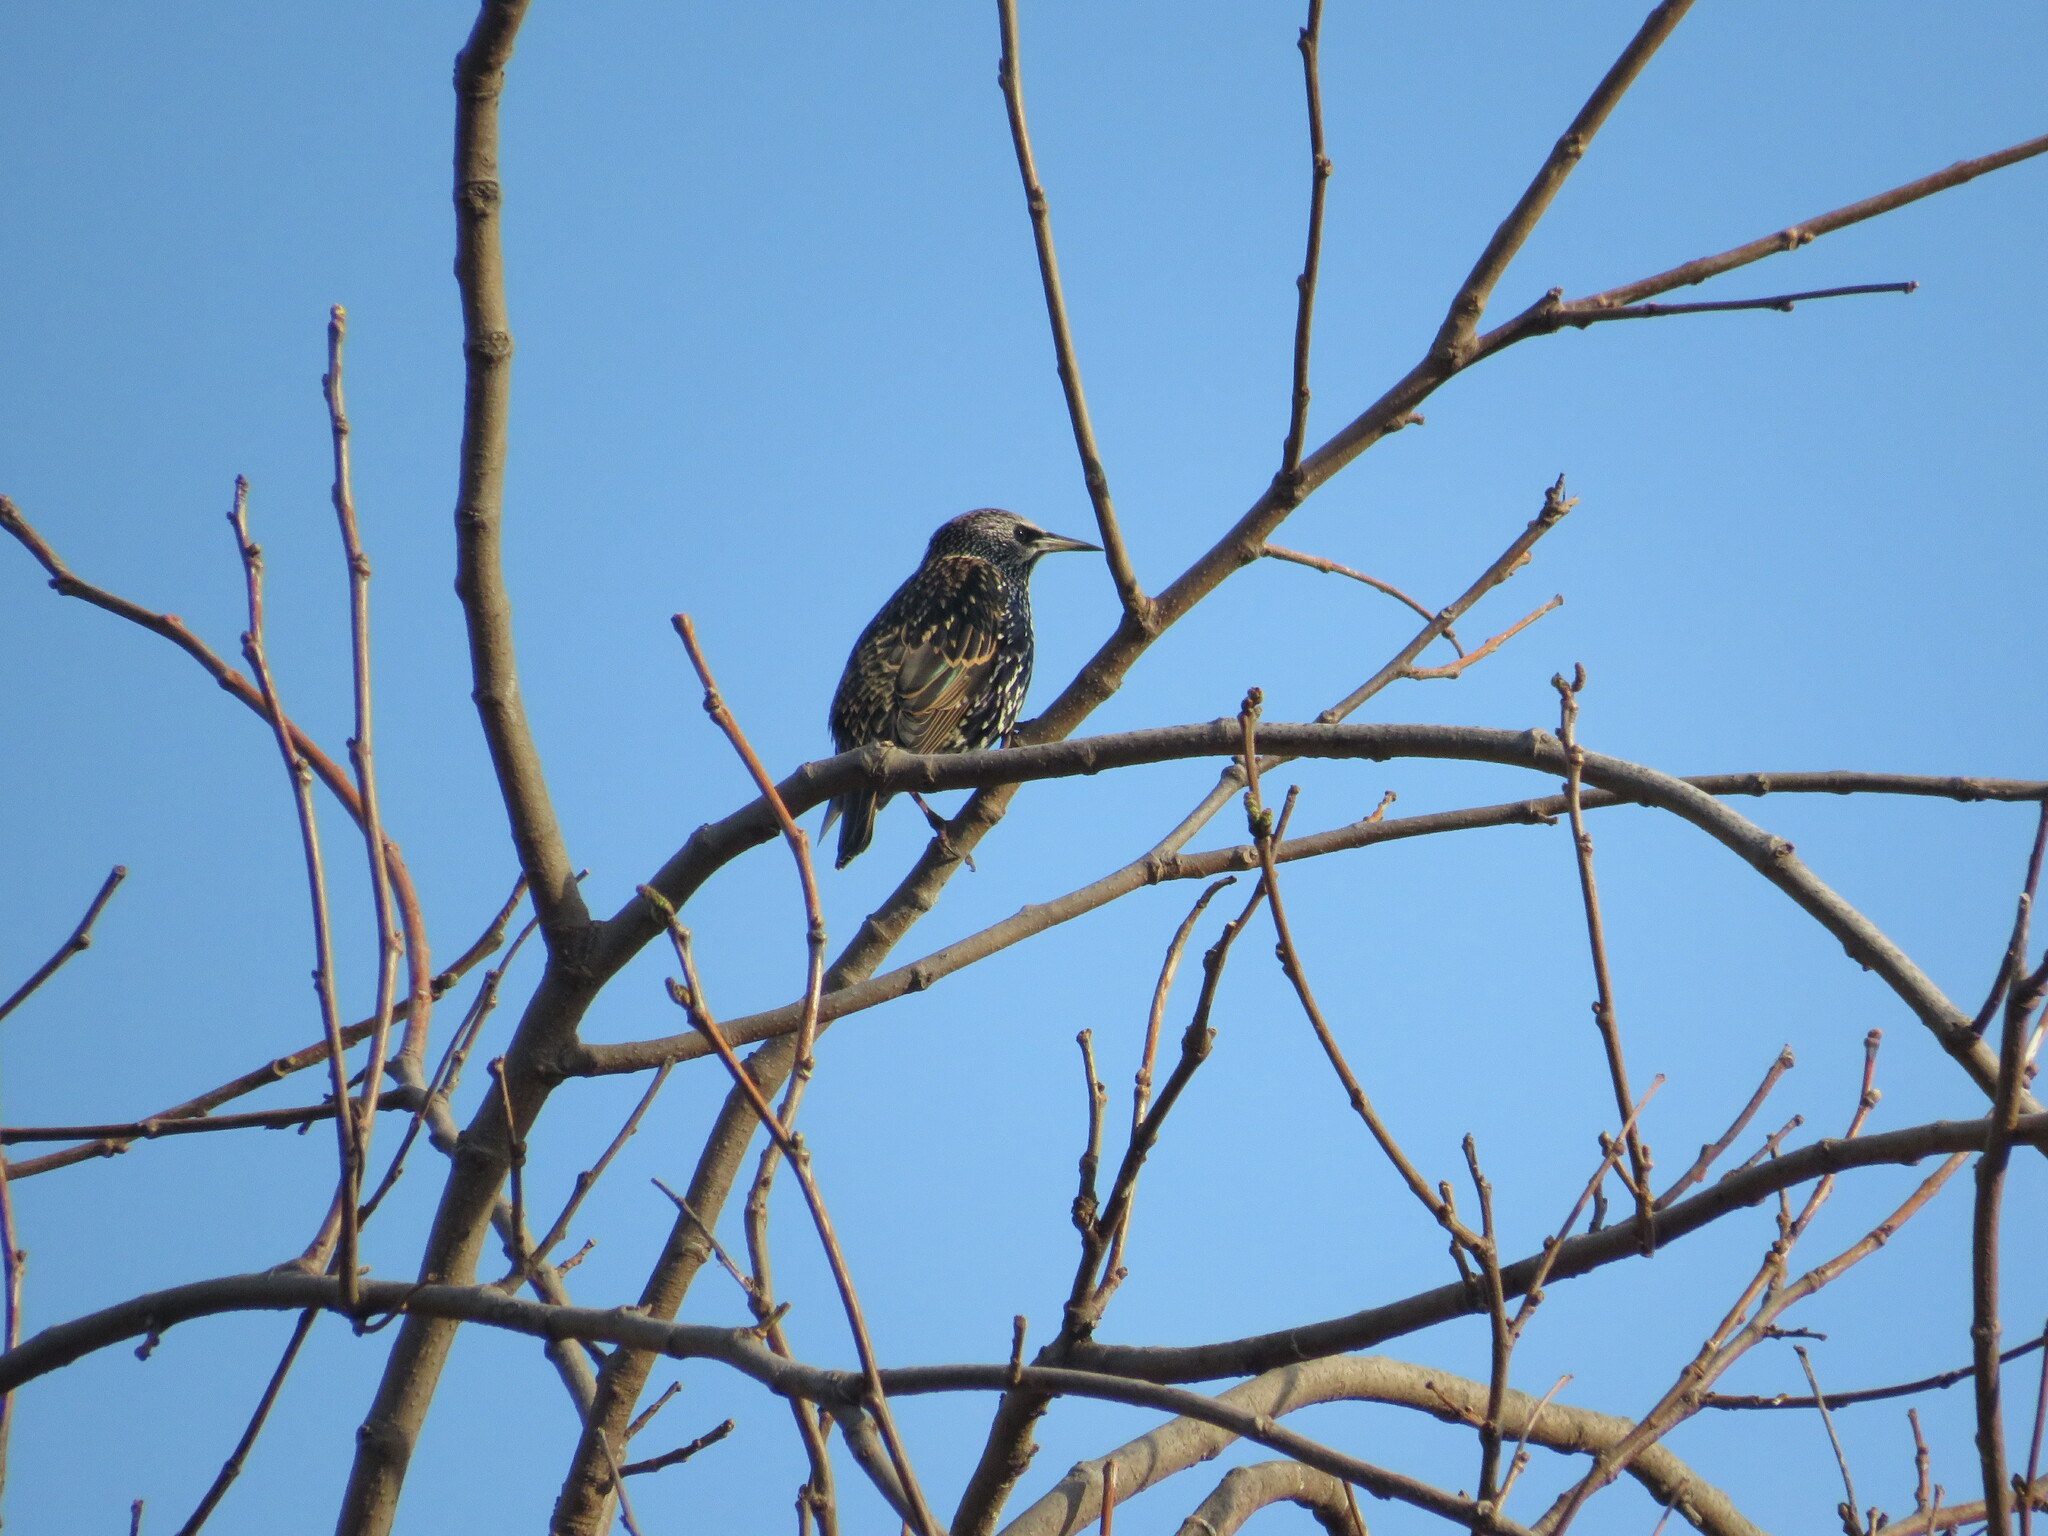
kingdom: Animalia
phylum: Chordata
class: Aves
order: Passeriformes
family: Sturnidae
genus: Sturnus
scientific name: Sturnus vulgaris
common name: Common starling
